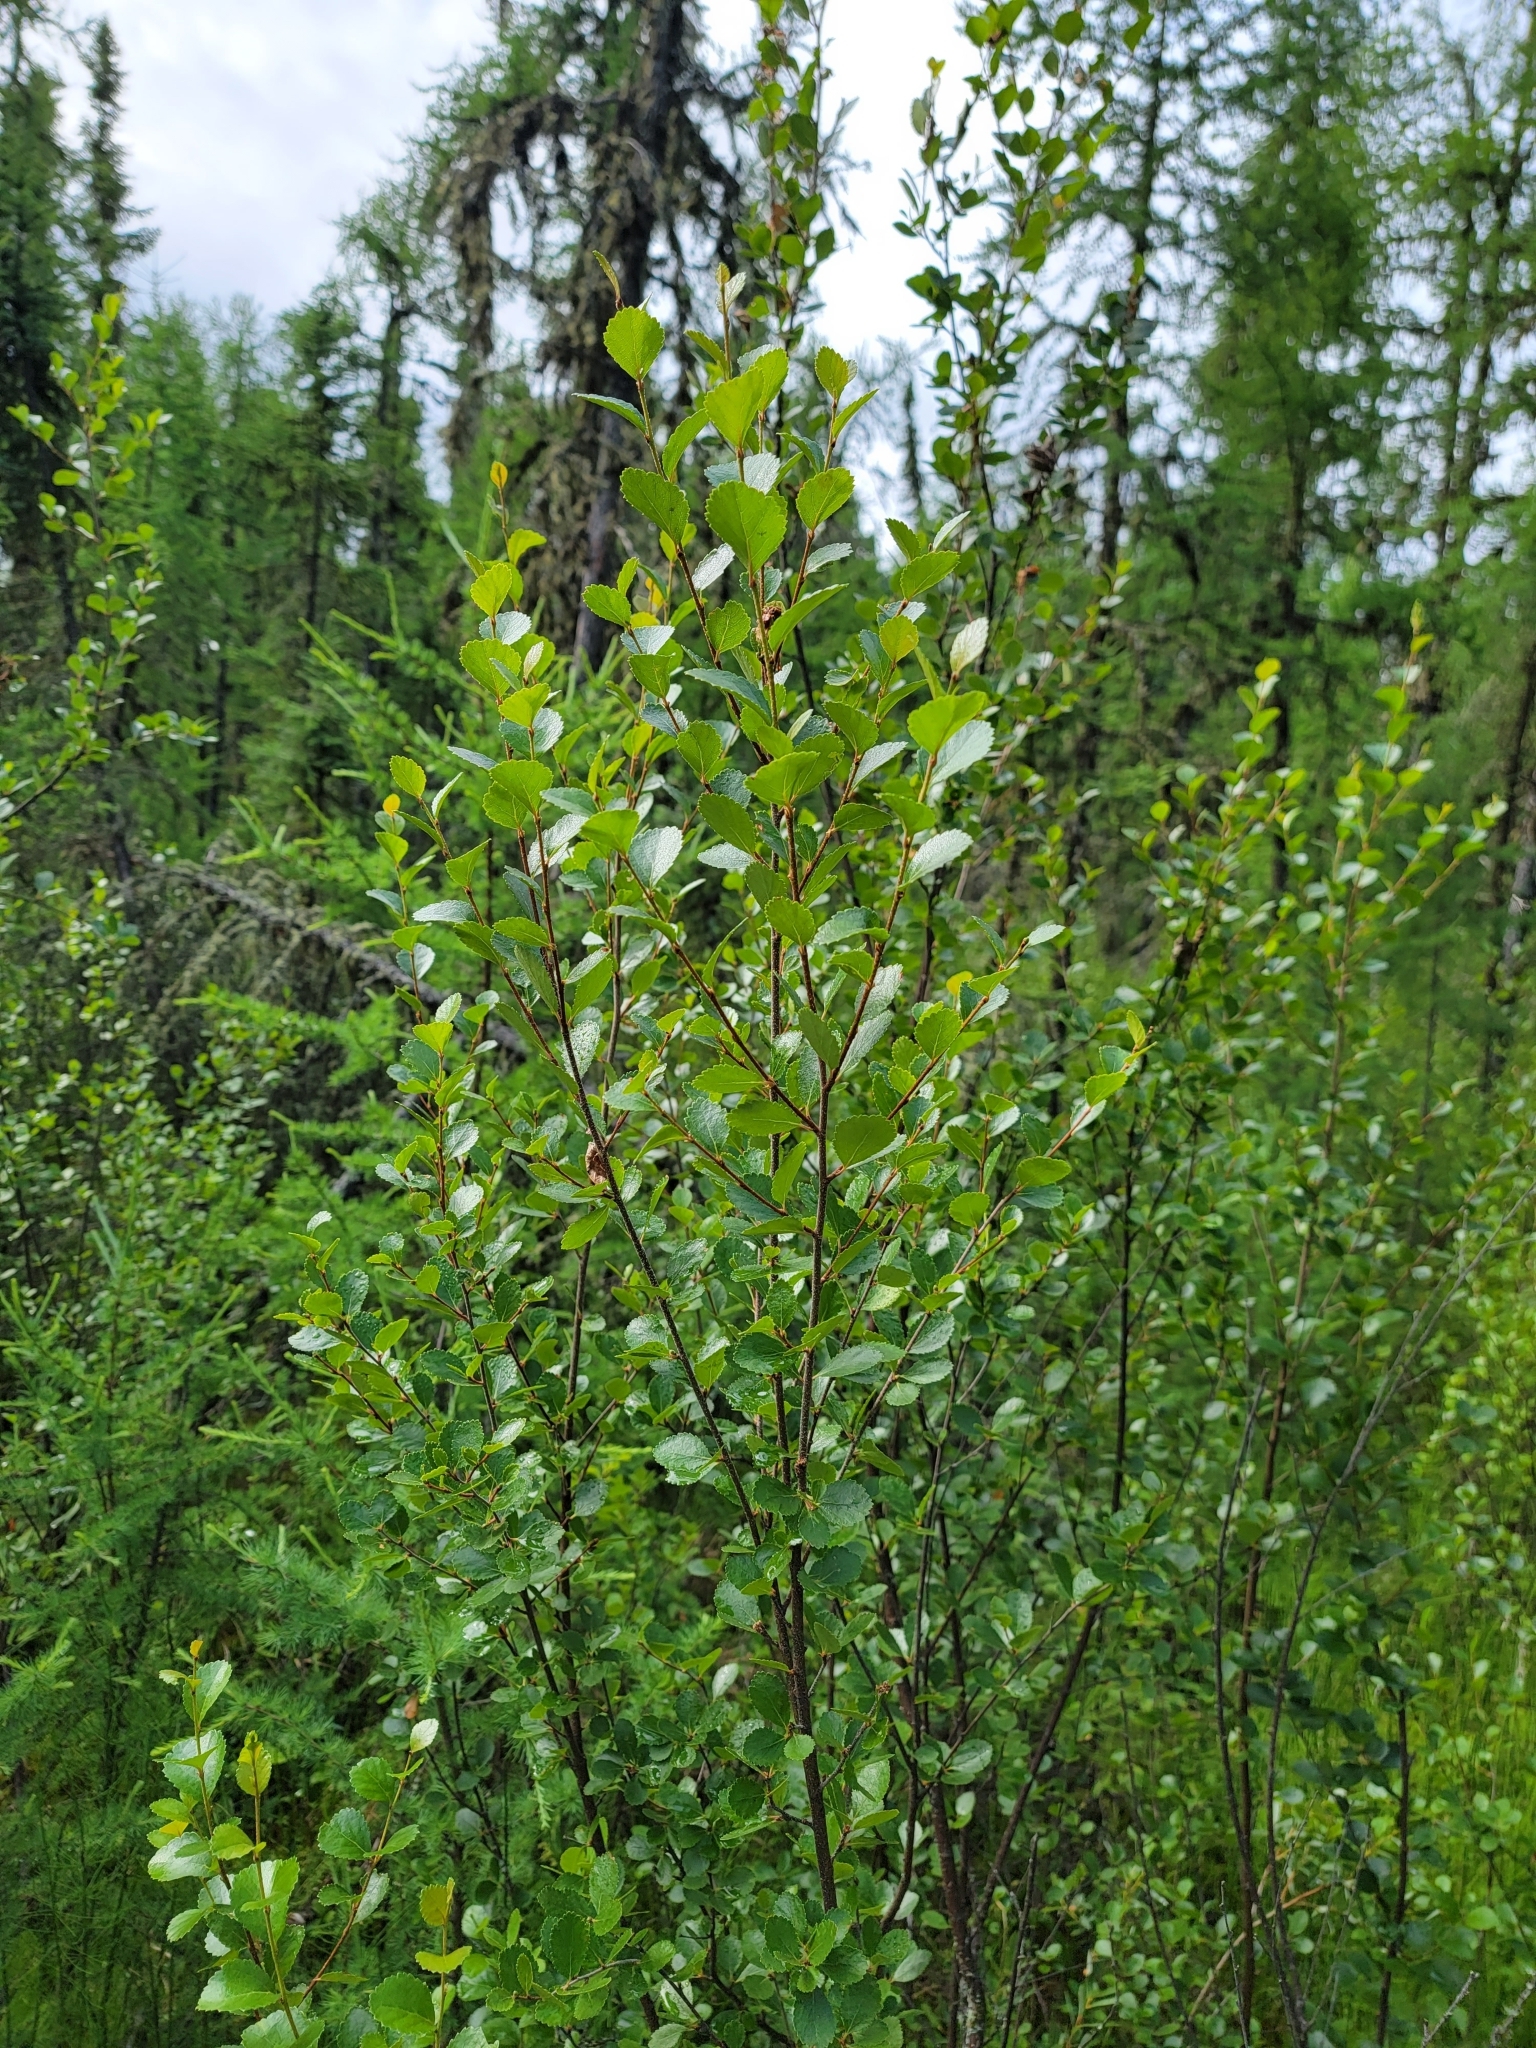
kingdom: Plantae
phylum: Tracheophyta
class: Magnoliopsida
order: Fagales
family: Betulaceae
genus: Betula
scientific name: Betula pumila
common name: Bog birch
